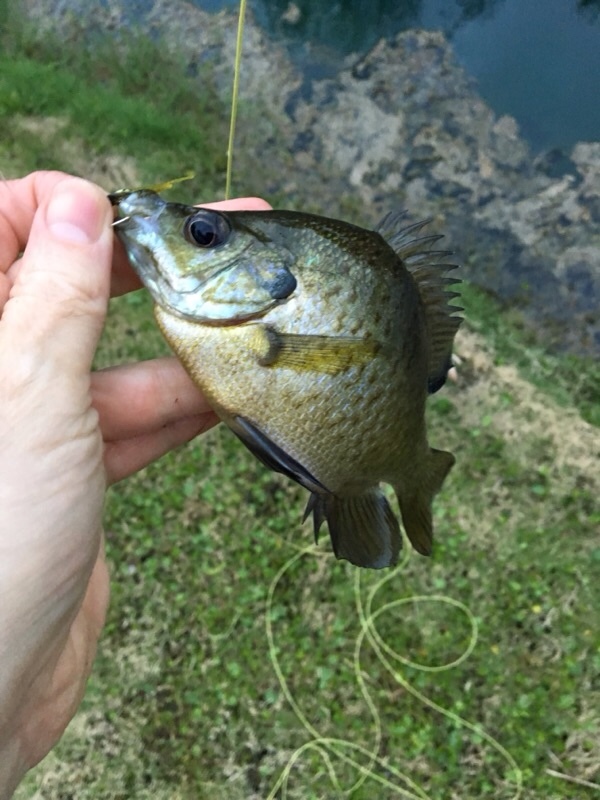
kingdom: Animalia
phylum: Chordata
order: Perciformes
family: Centrarchidae
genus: Lepomis
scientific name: Lepomis microlophus
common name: Redear sunfish
